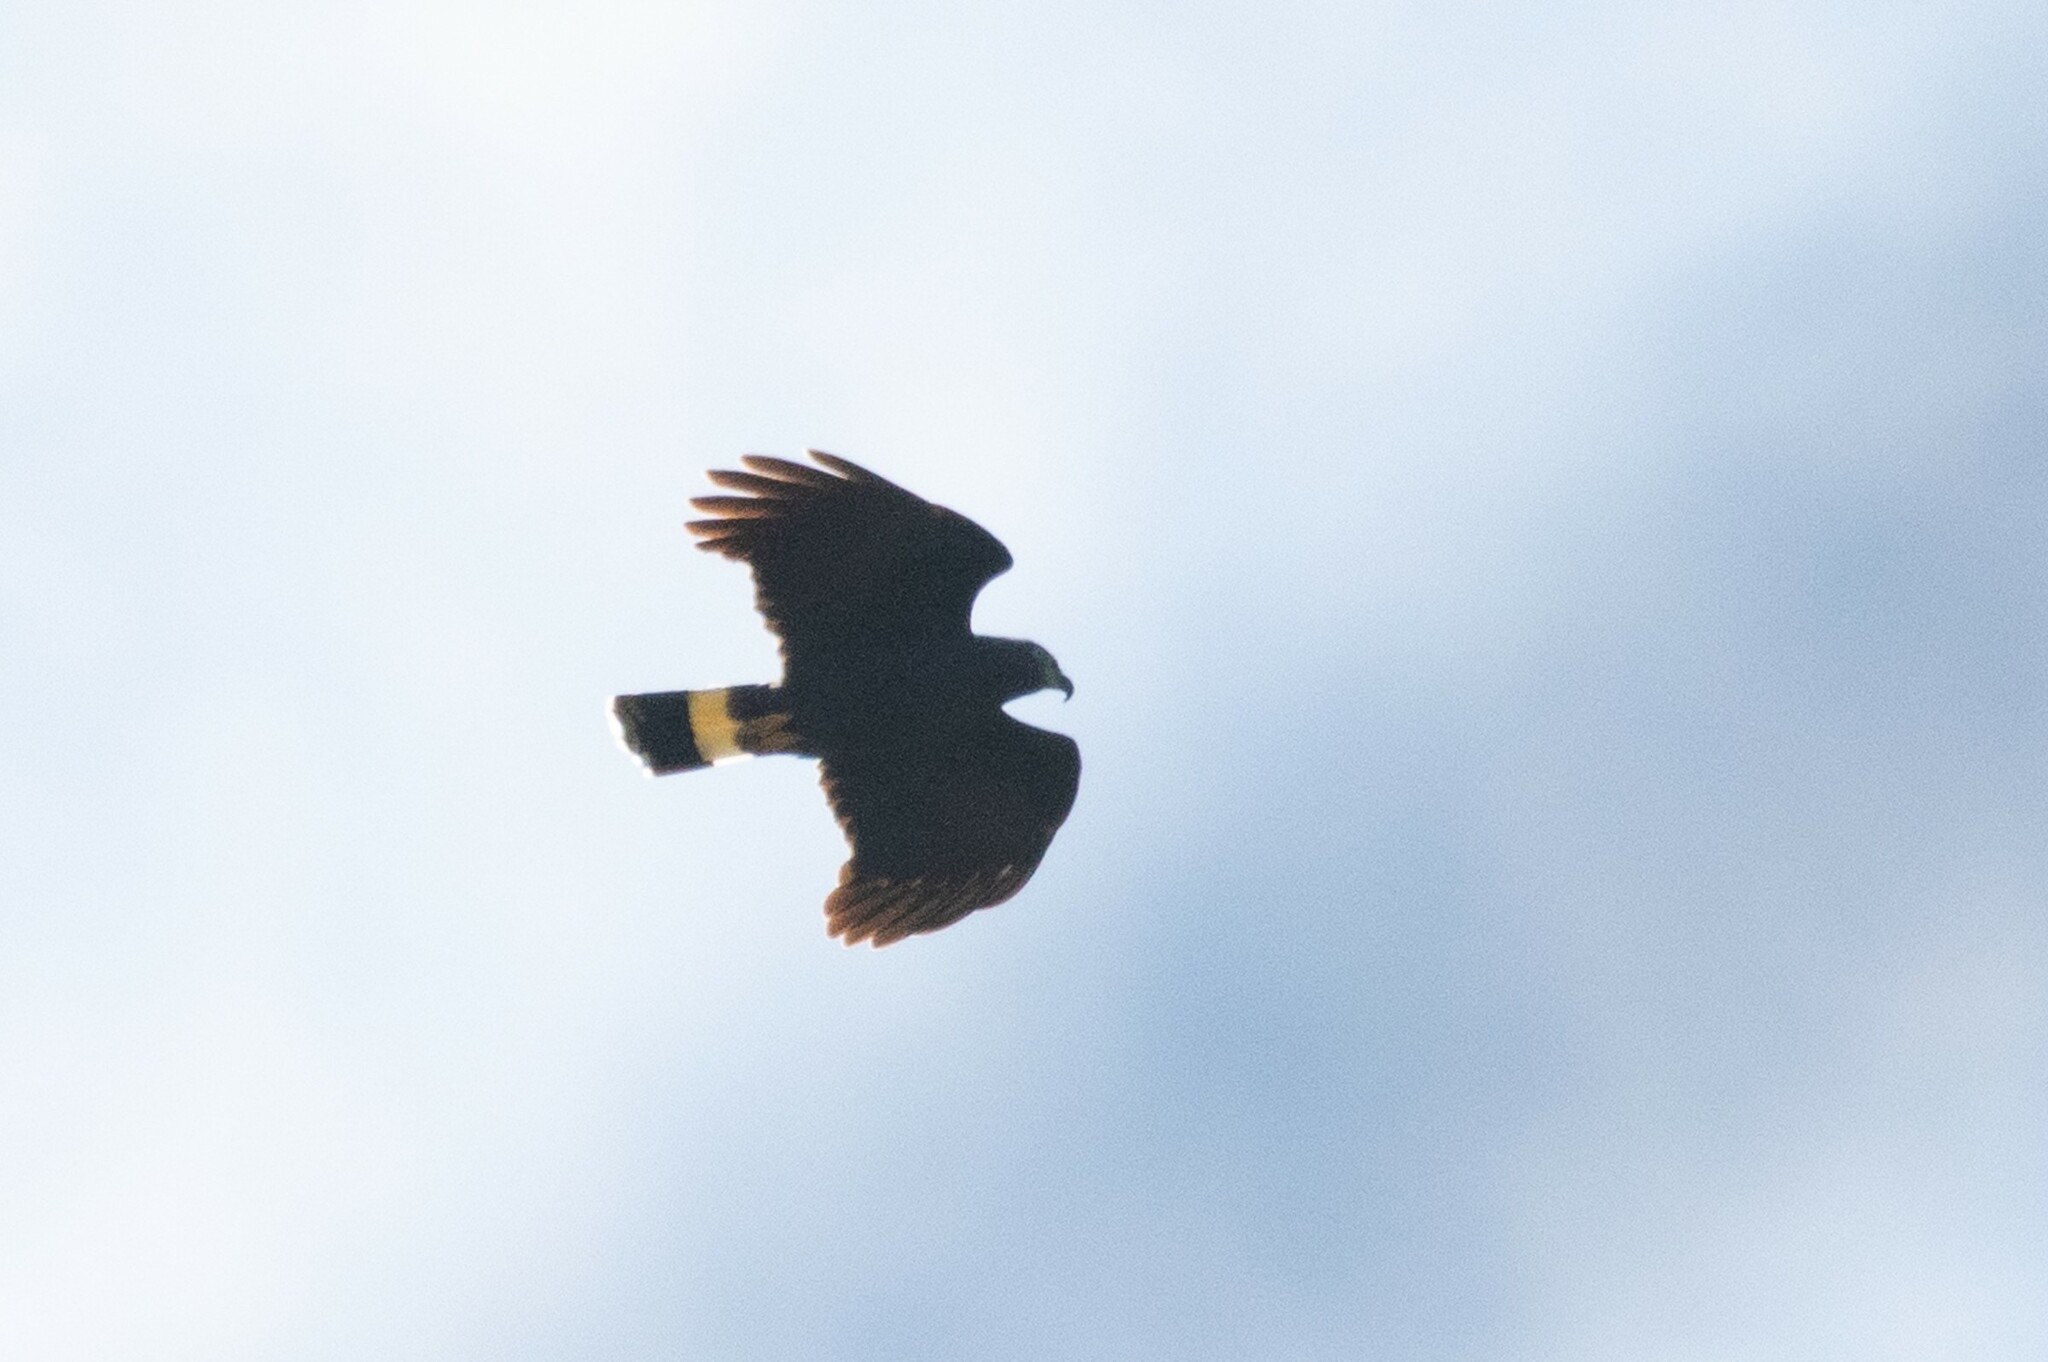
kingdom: Animalia
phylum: Chordata
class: Aves
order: Accipitriformes
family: Accipitridae
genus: Chondrohierax
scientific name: Chondrohierax uncinatus
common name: Hook-billed kite
